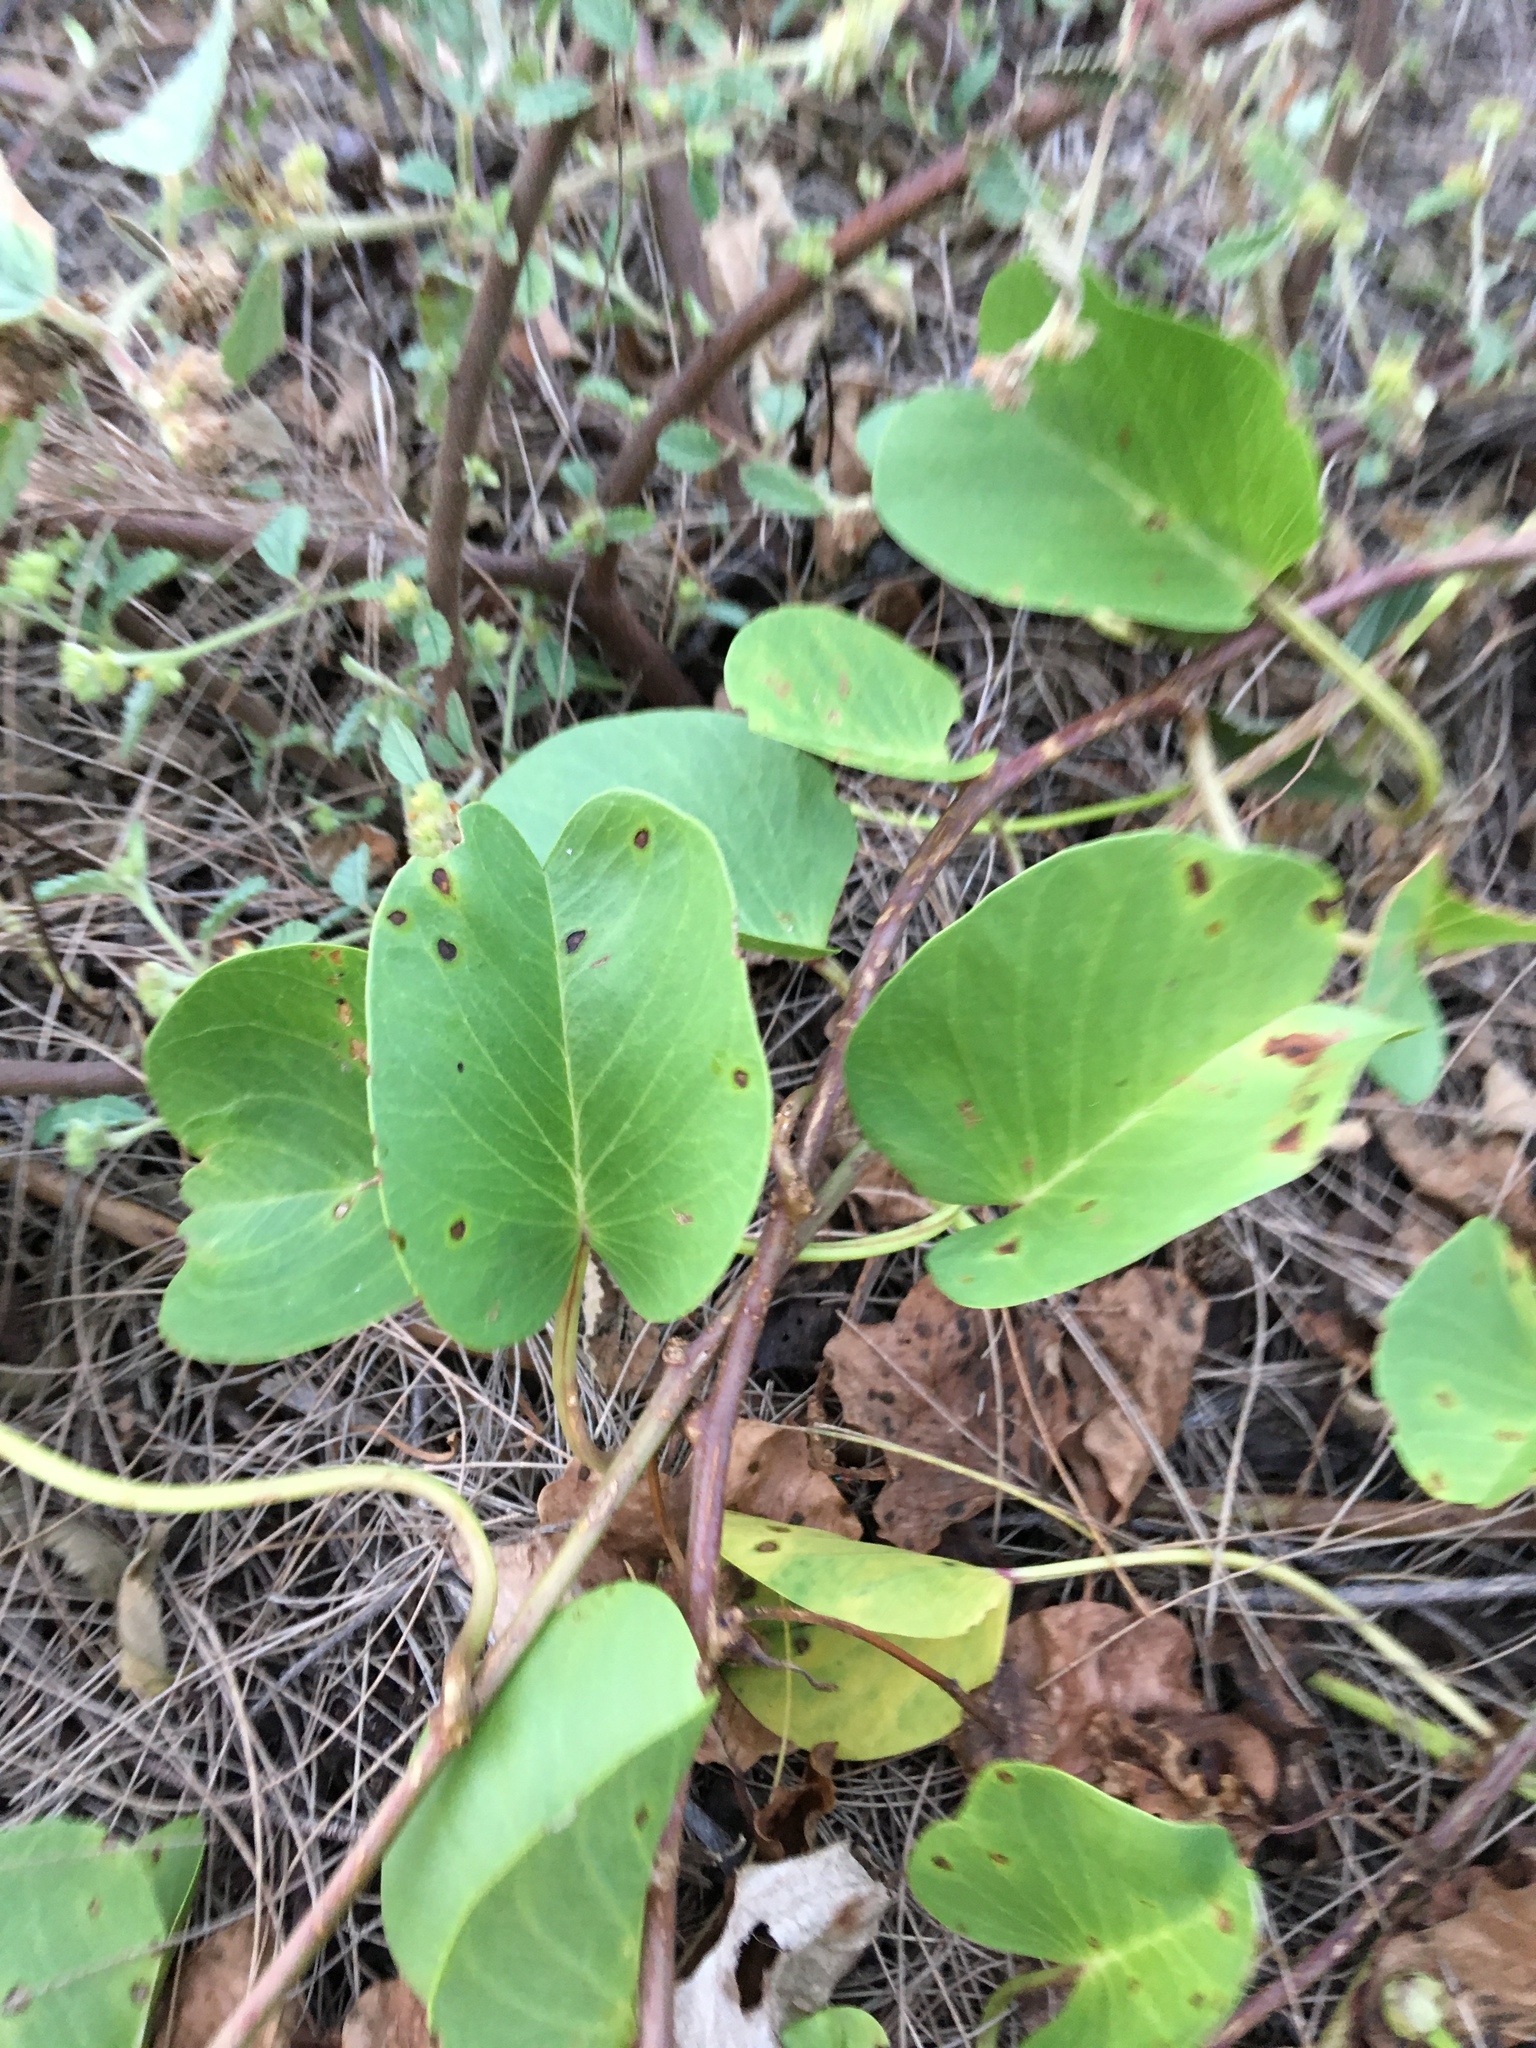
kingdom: Plantae
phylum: Tracheophyta
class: Magnoliopsida
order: Solanales
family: Convolvulaceae
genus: Ipomoea
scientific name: Ipomoea pes-caprae
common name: Beach morning glory
